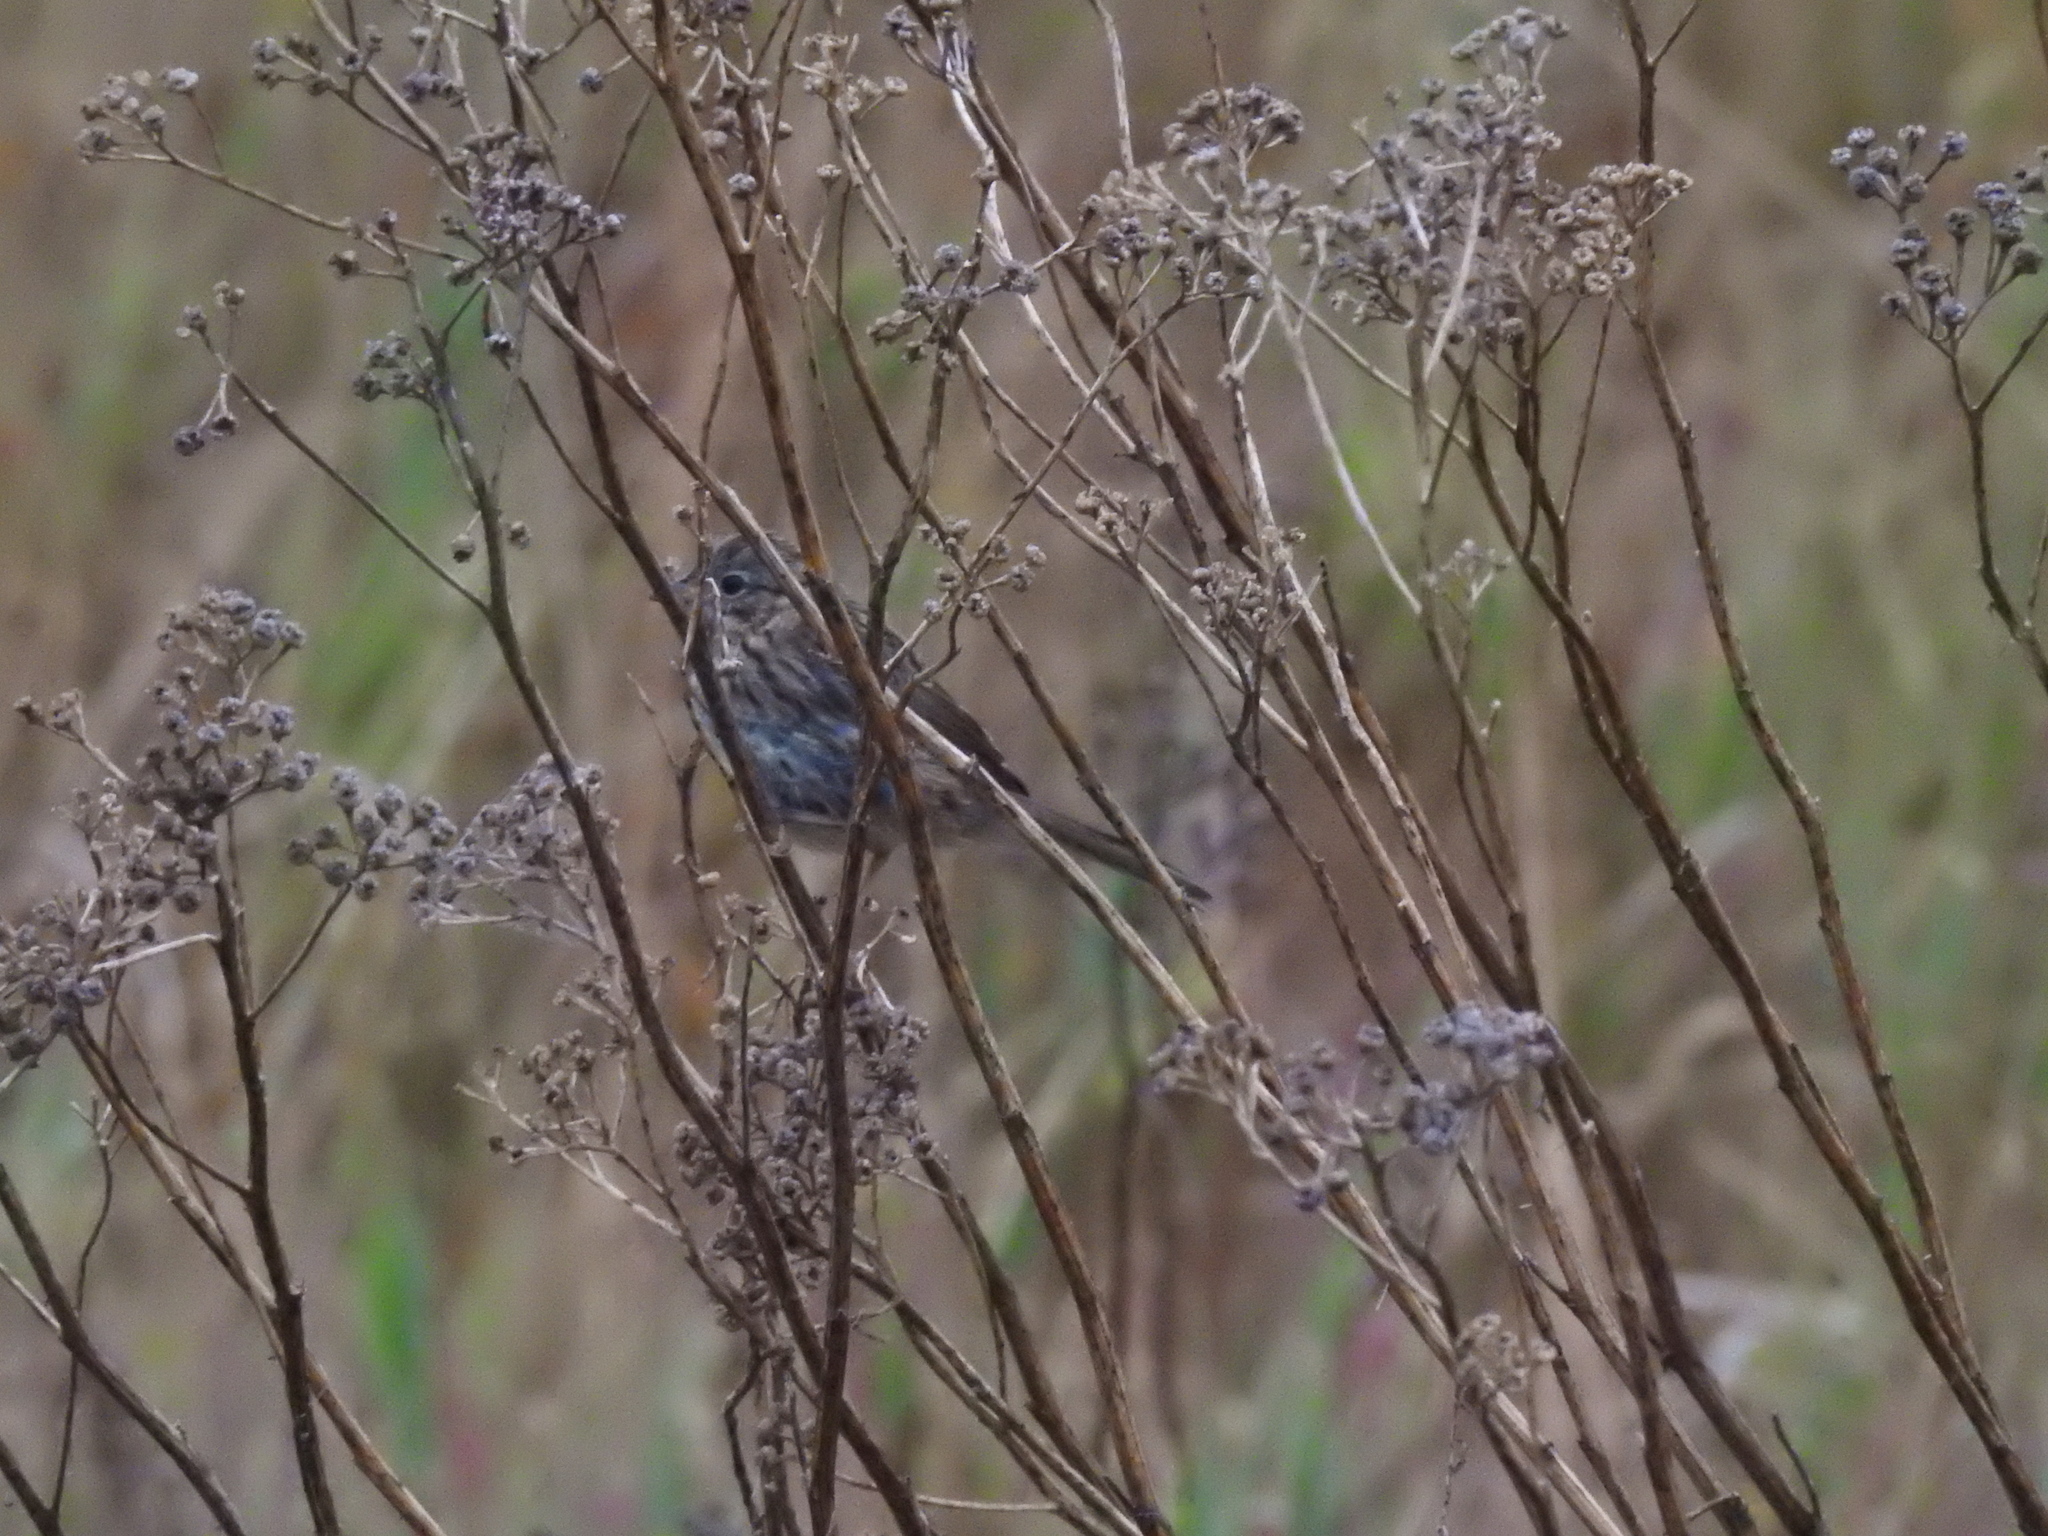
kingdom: Animalia
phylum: Chordata
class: Aves
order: Passeriformes
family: Passerellidae
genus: Melospiza
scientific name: Melospiza lincolnii
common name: Lincoln's sparrow
